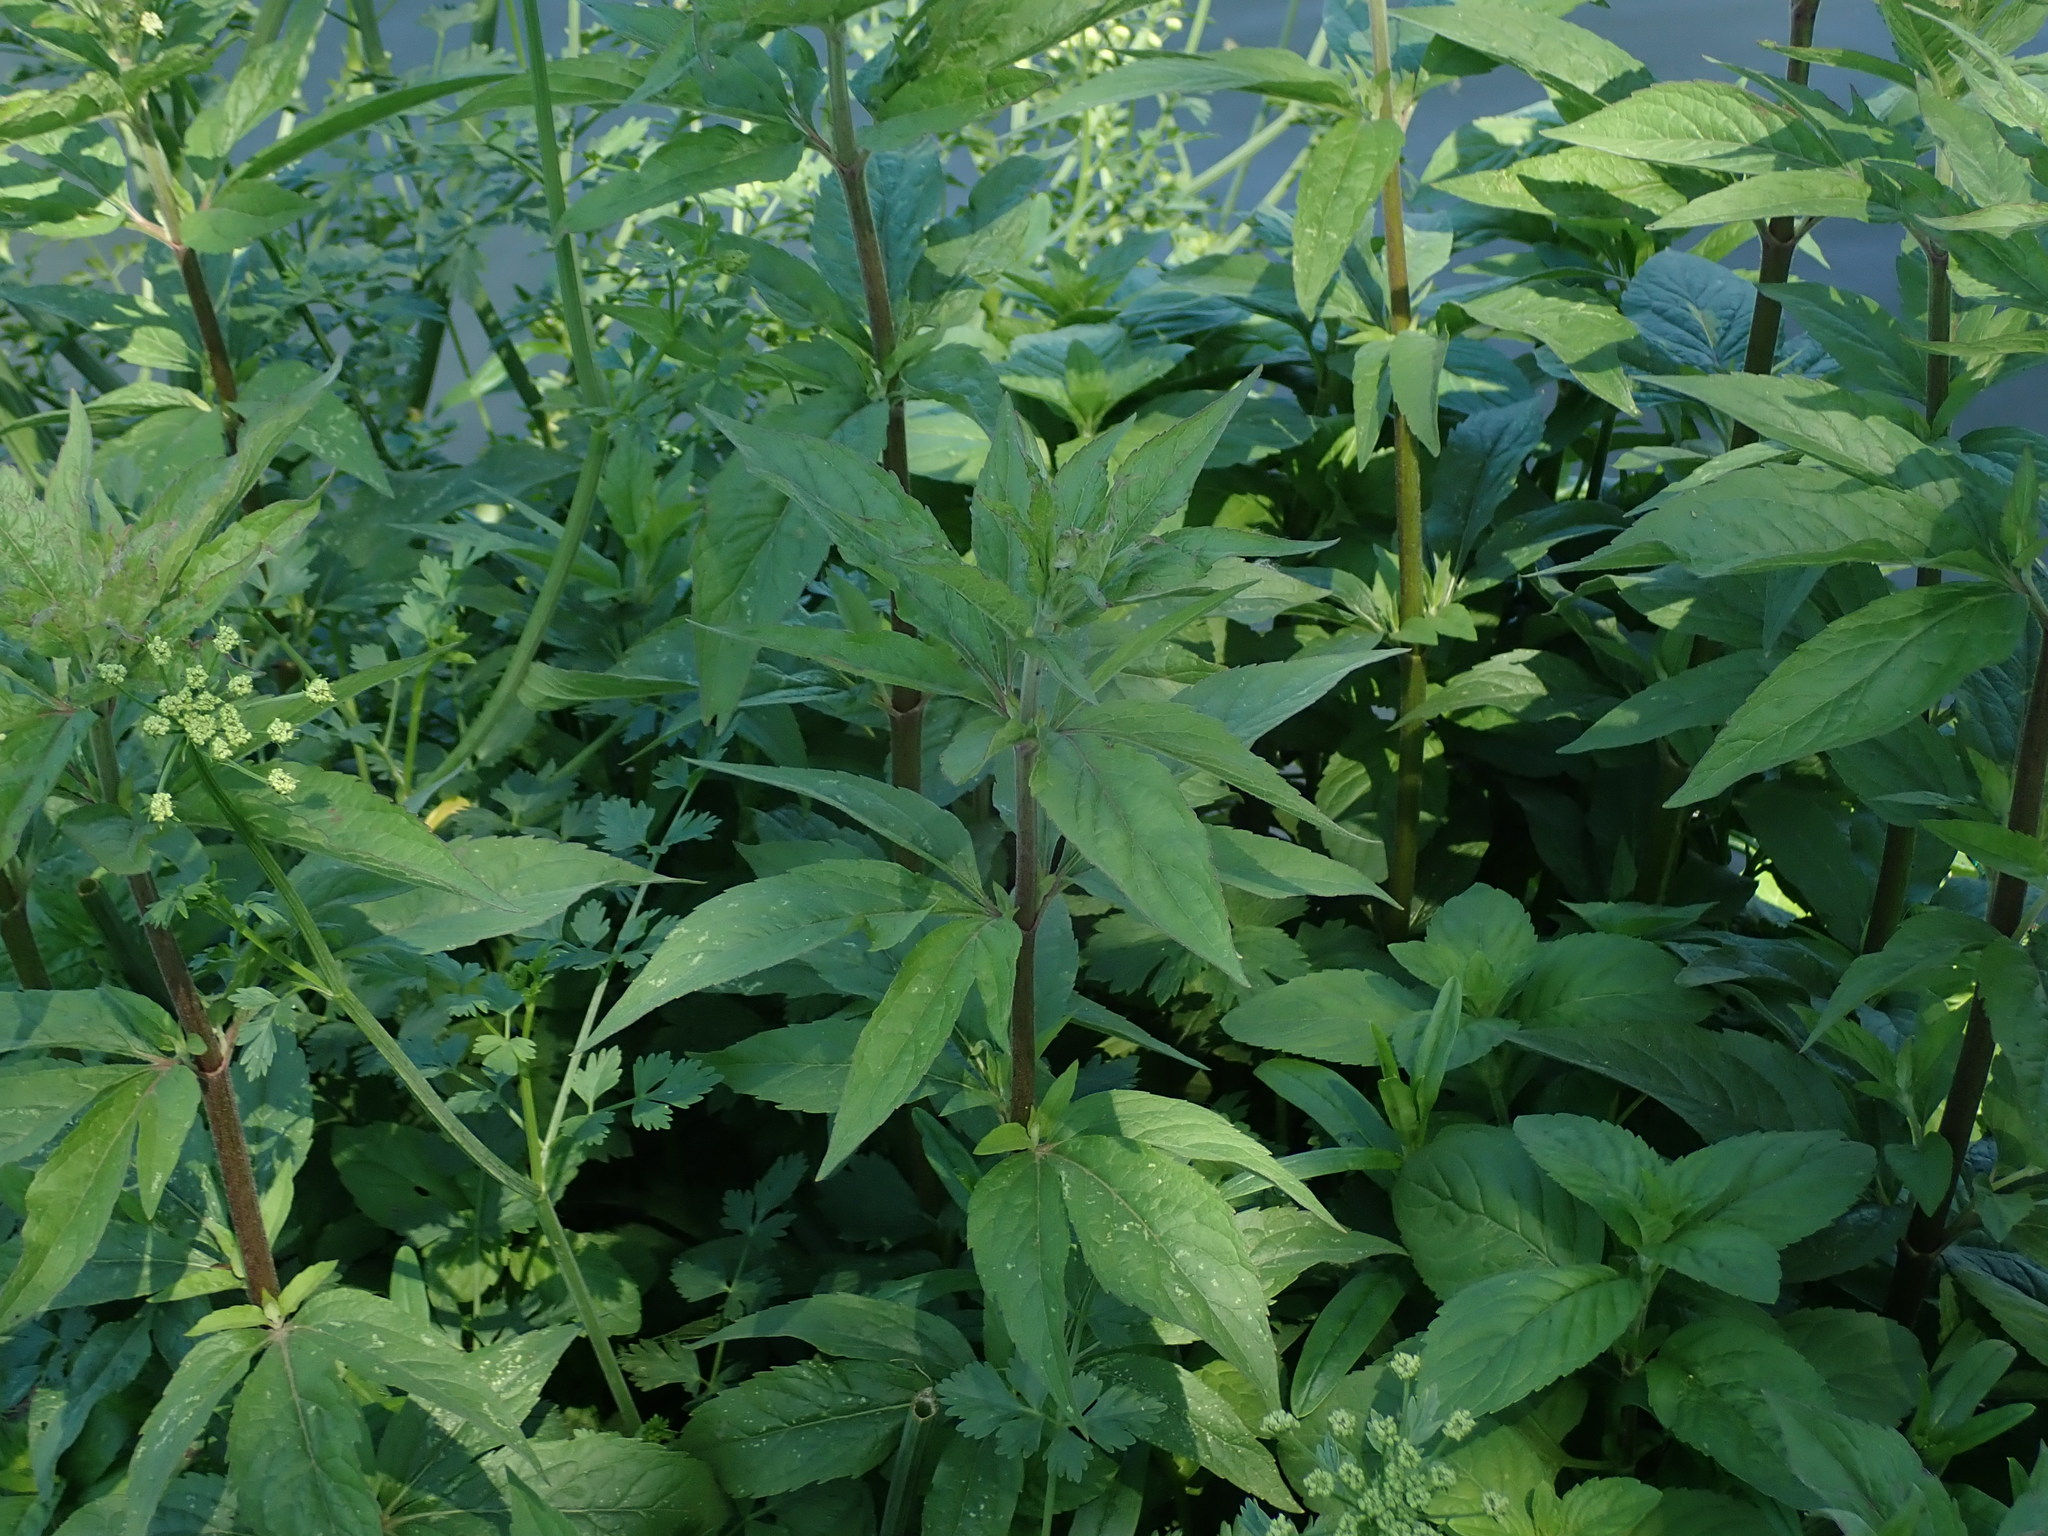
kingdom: Plantae
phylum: Tracheophyta
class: Magnoliopsida
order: Asterales
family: Asteraceae
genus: Eupatorium
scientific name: Eupatorium cannabinum
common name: Hemp-agrimony
